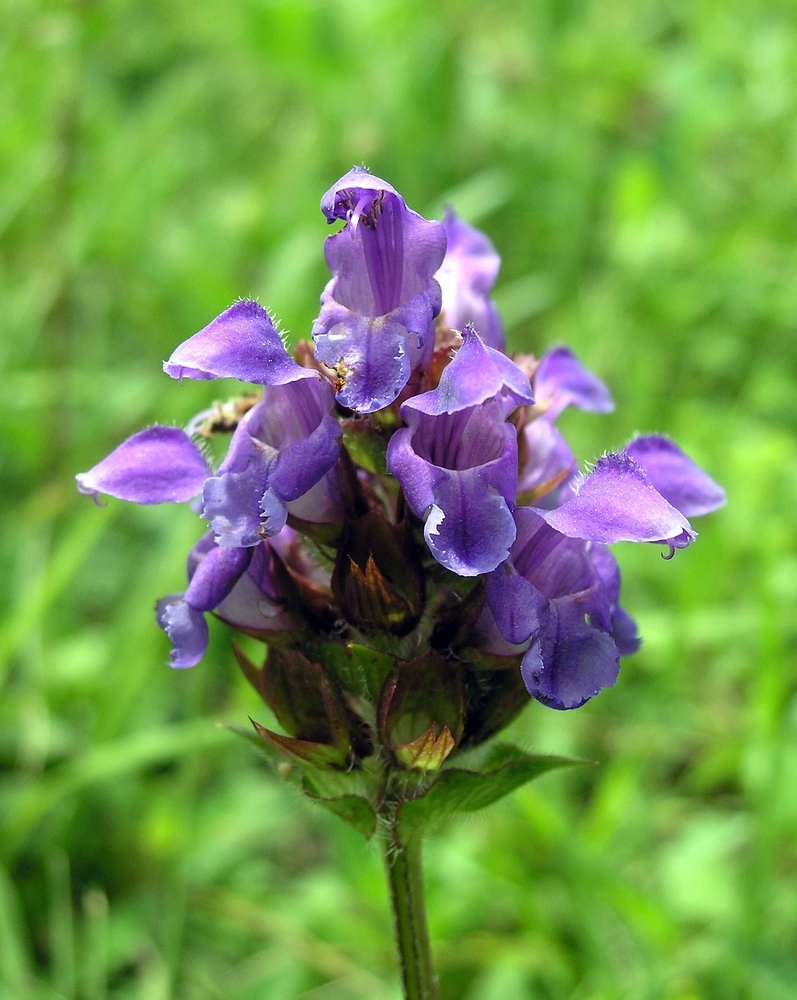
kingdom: Plantae
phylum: Tracheophyta
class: Magnoliopsida
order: Lamiales
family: Lamiaceae
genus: Prunella
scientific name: Prunella grandiflora
